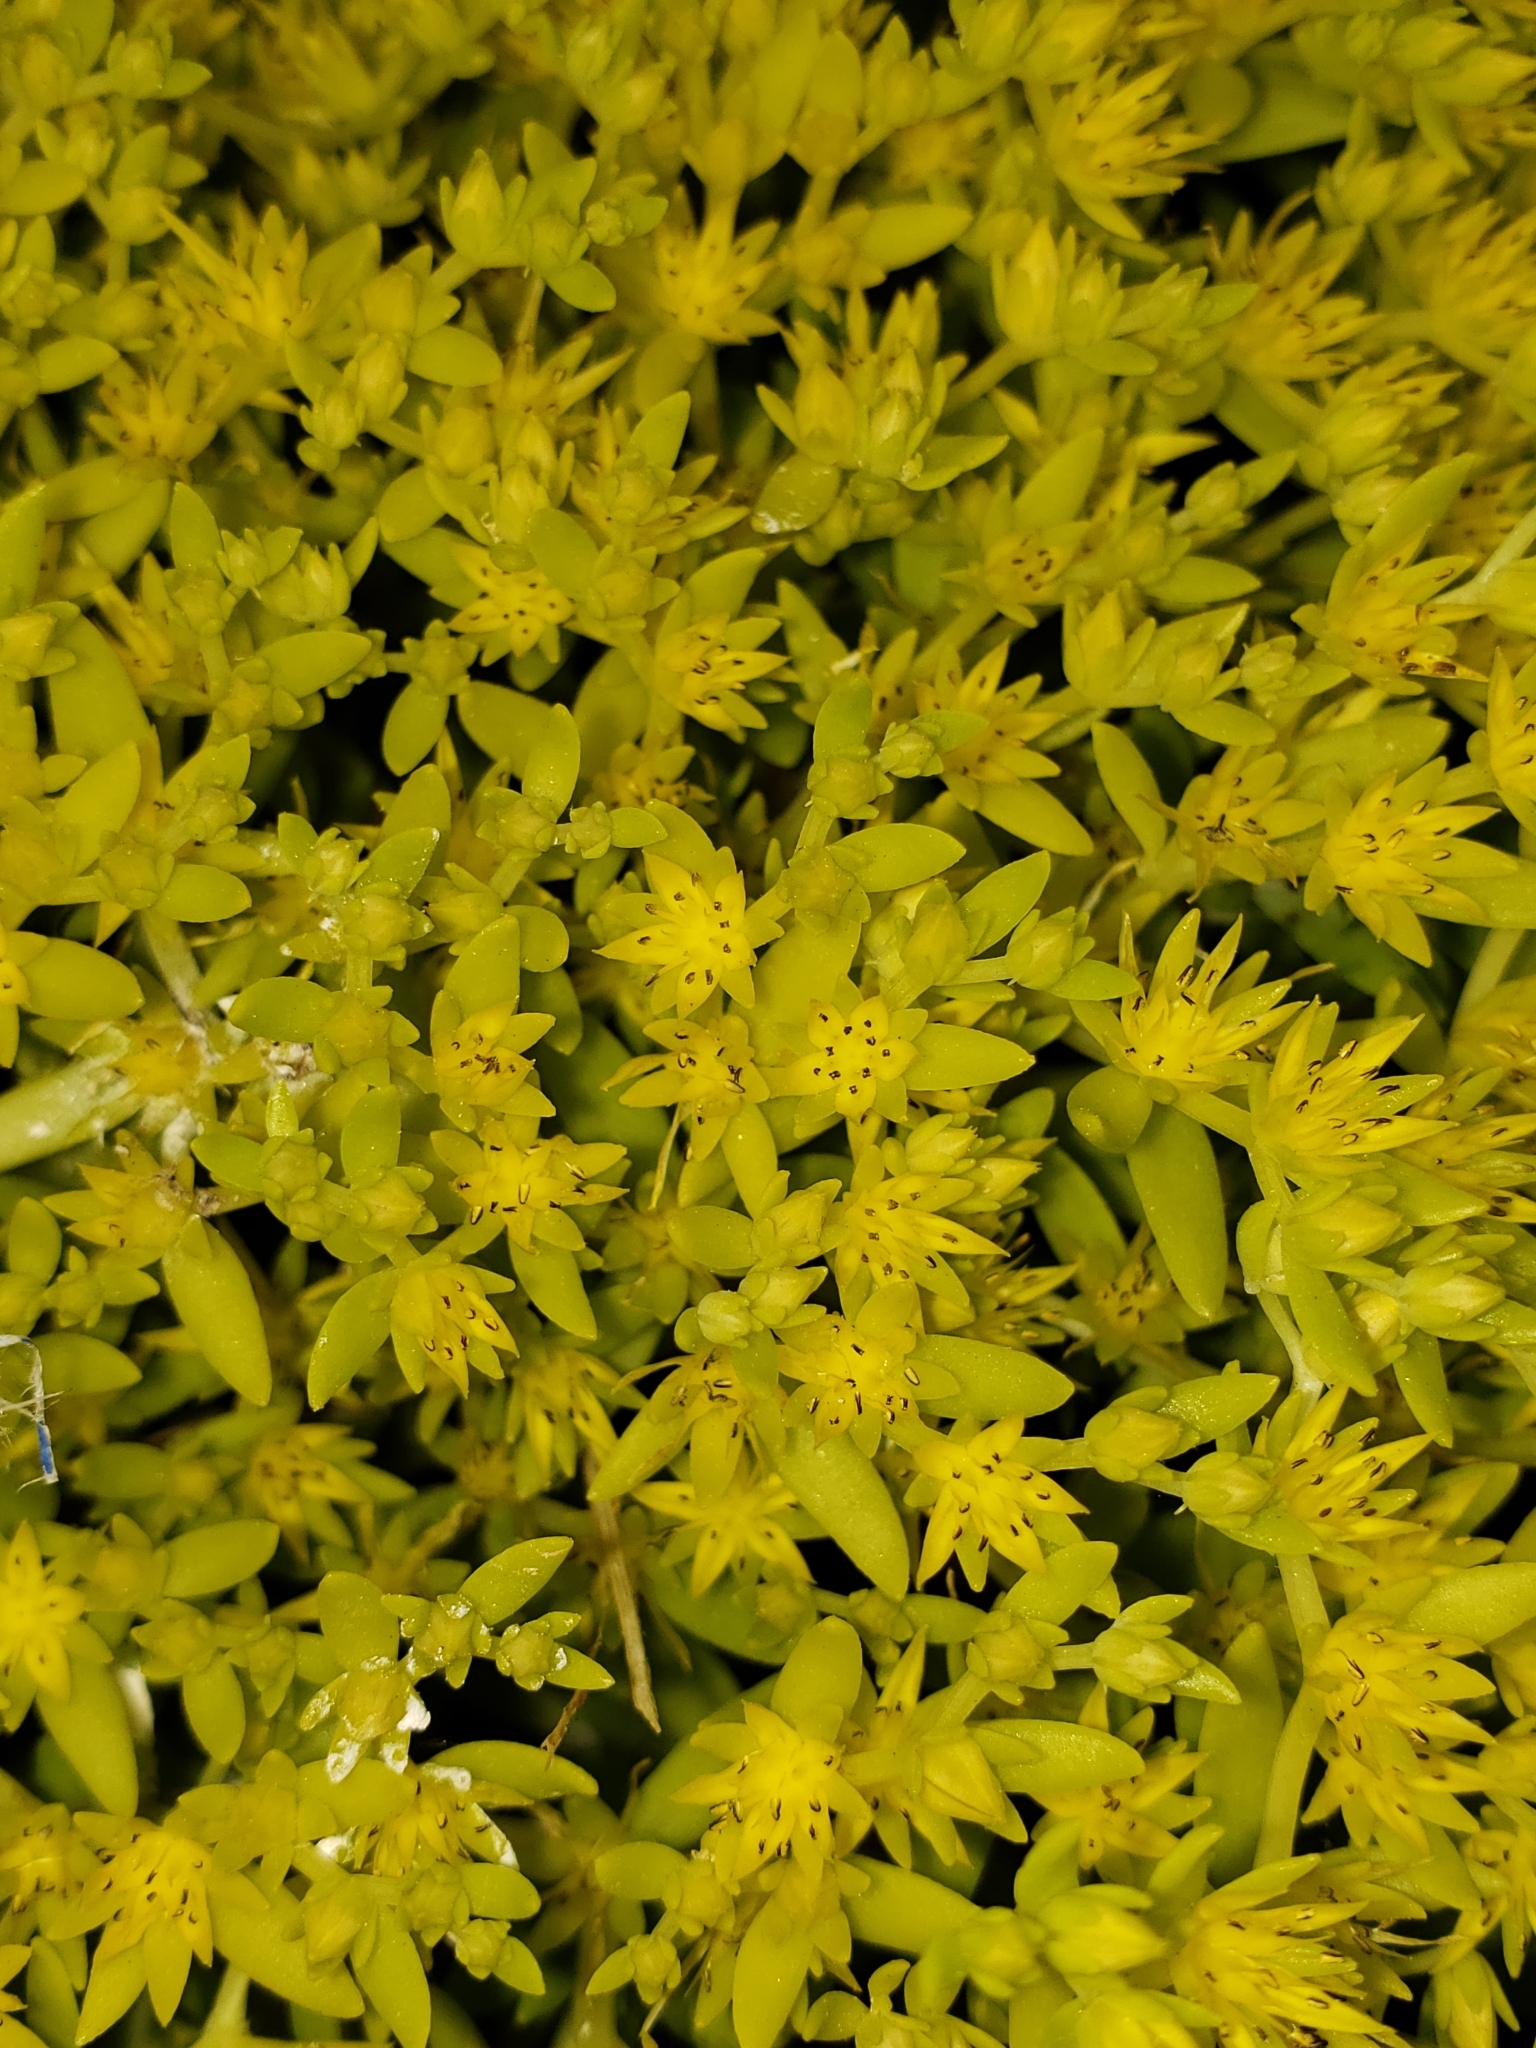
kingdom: Plantae
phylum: Tracheophyta
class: Magnoliopsida
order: Saxifragales
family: Crassulaceae
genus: Sedum
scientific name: Sedum sarmentosum
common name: Stringy stonecrop
